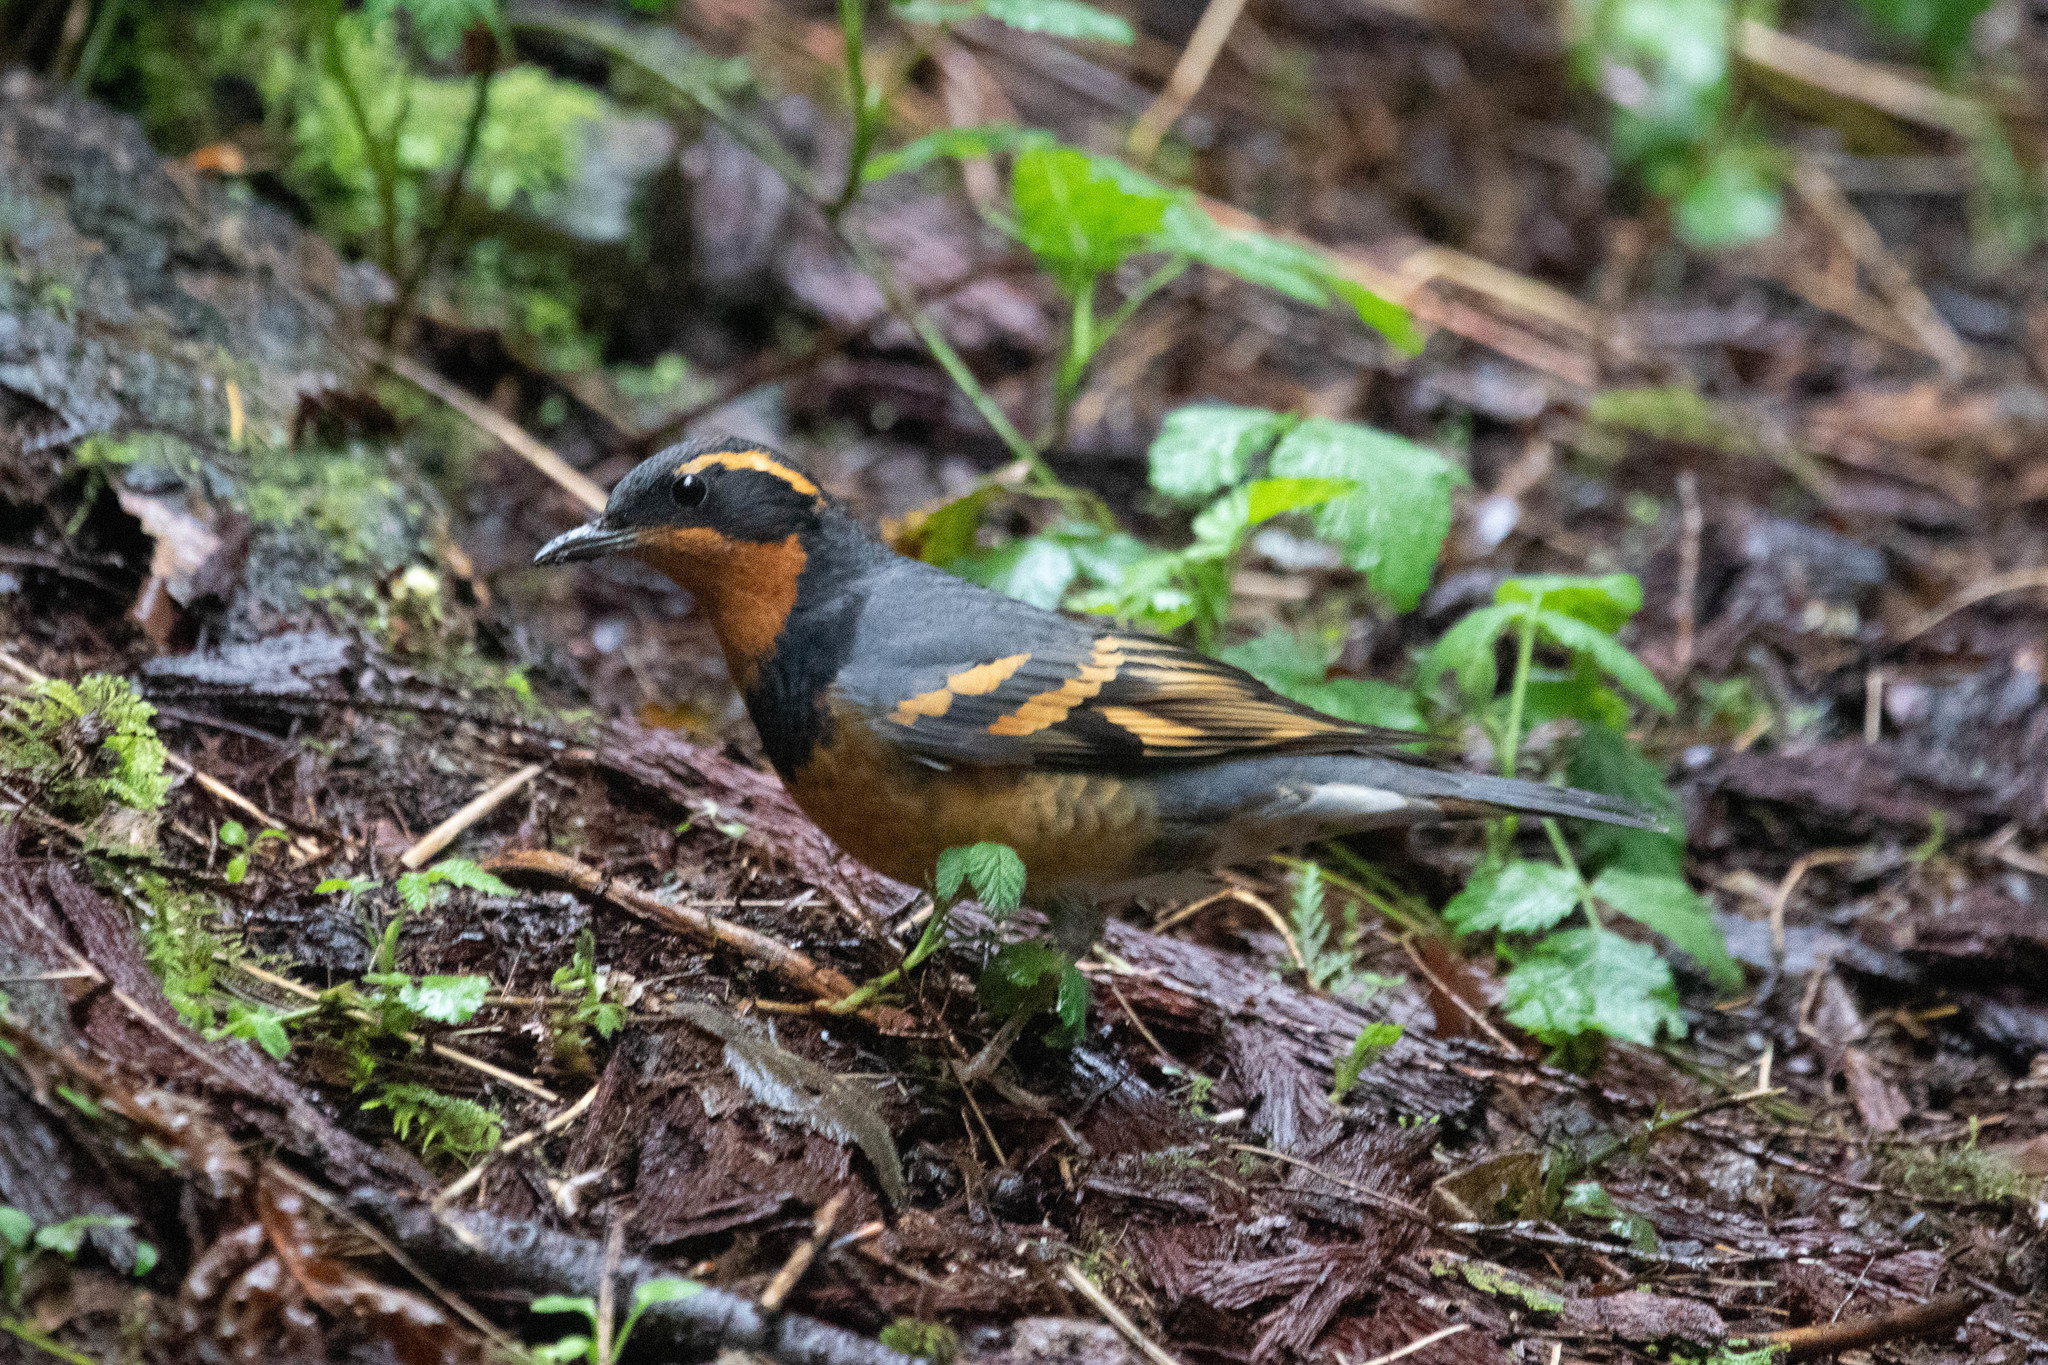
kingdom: Animalia
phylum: Chordata
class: Aves
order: Passeriformes
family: Turdidae
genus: Ixoreus
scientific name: Ixoreus naevius
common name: Varied thrush
